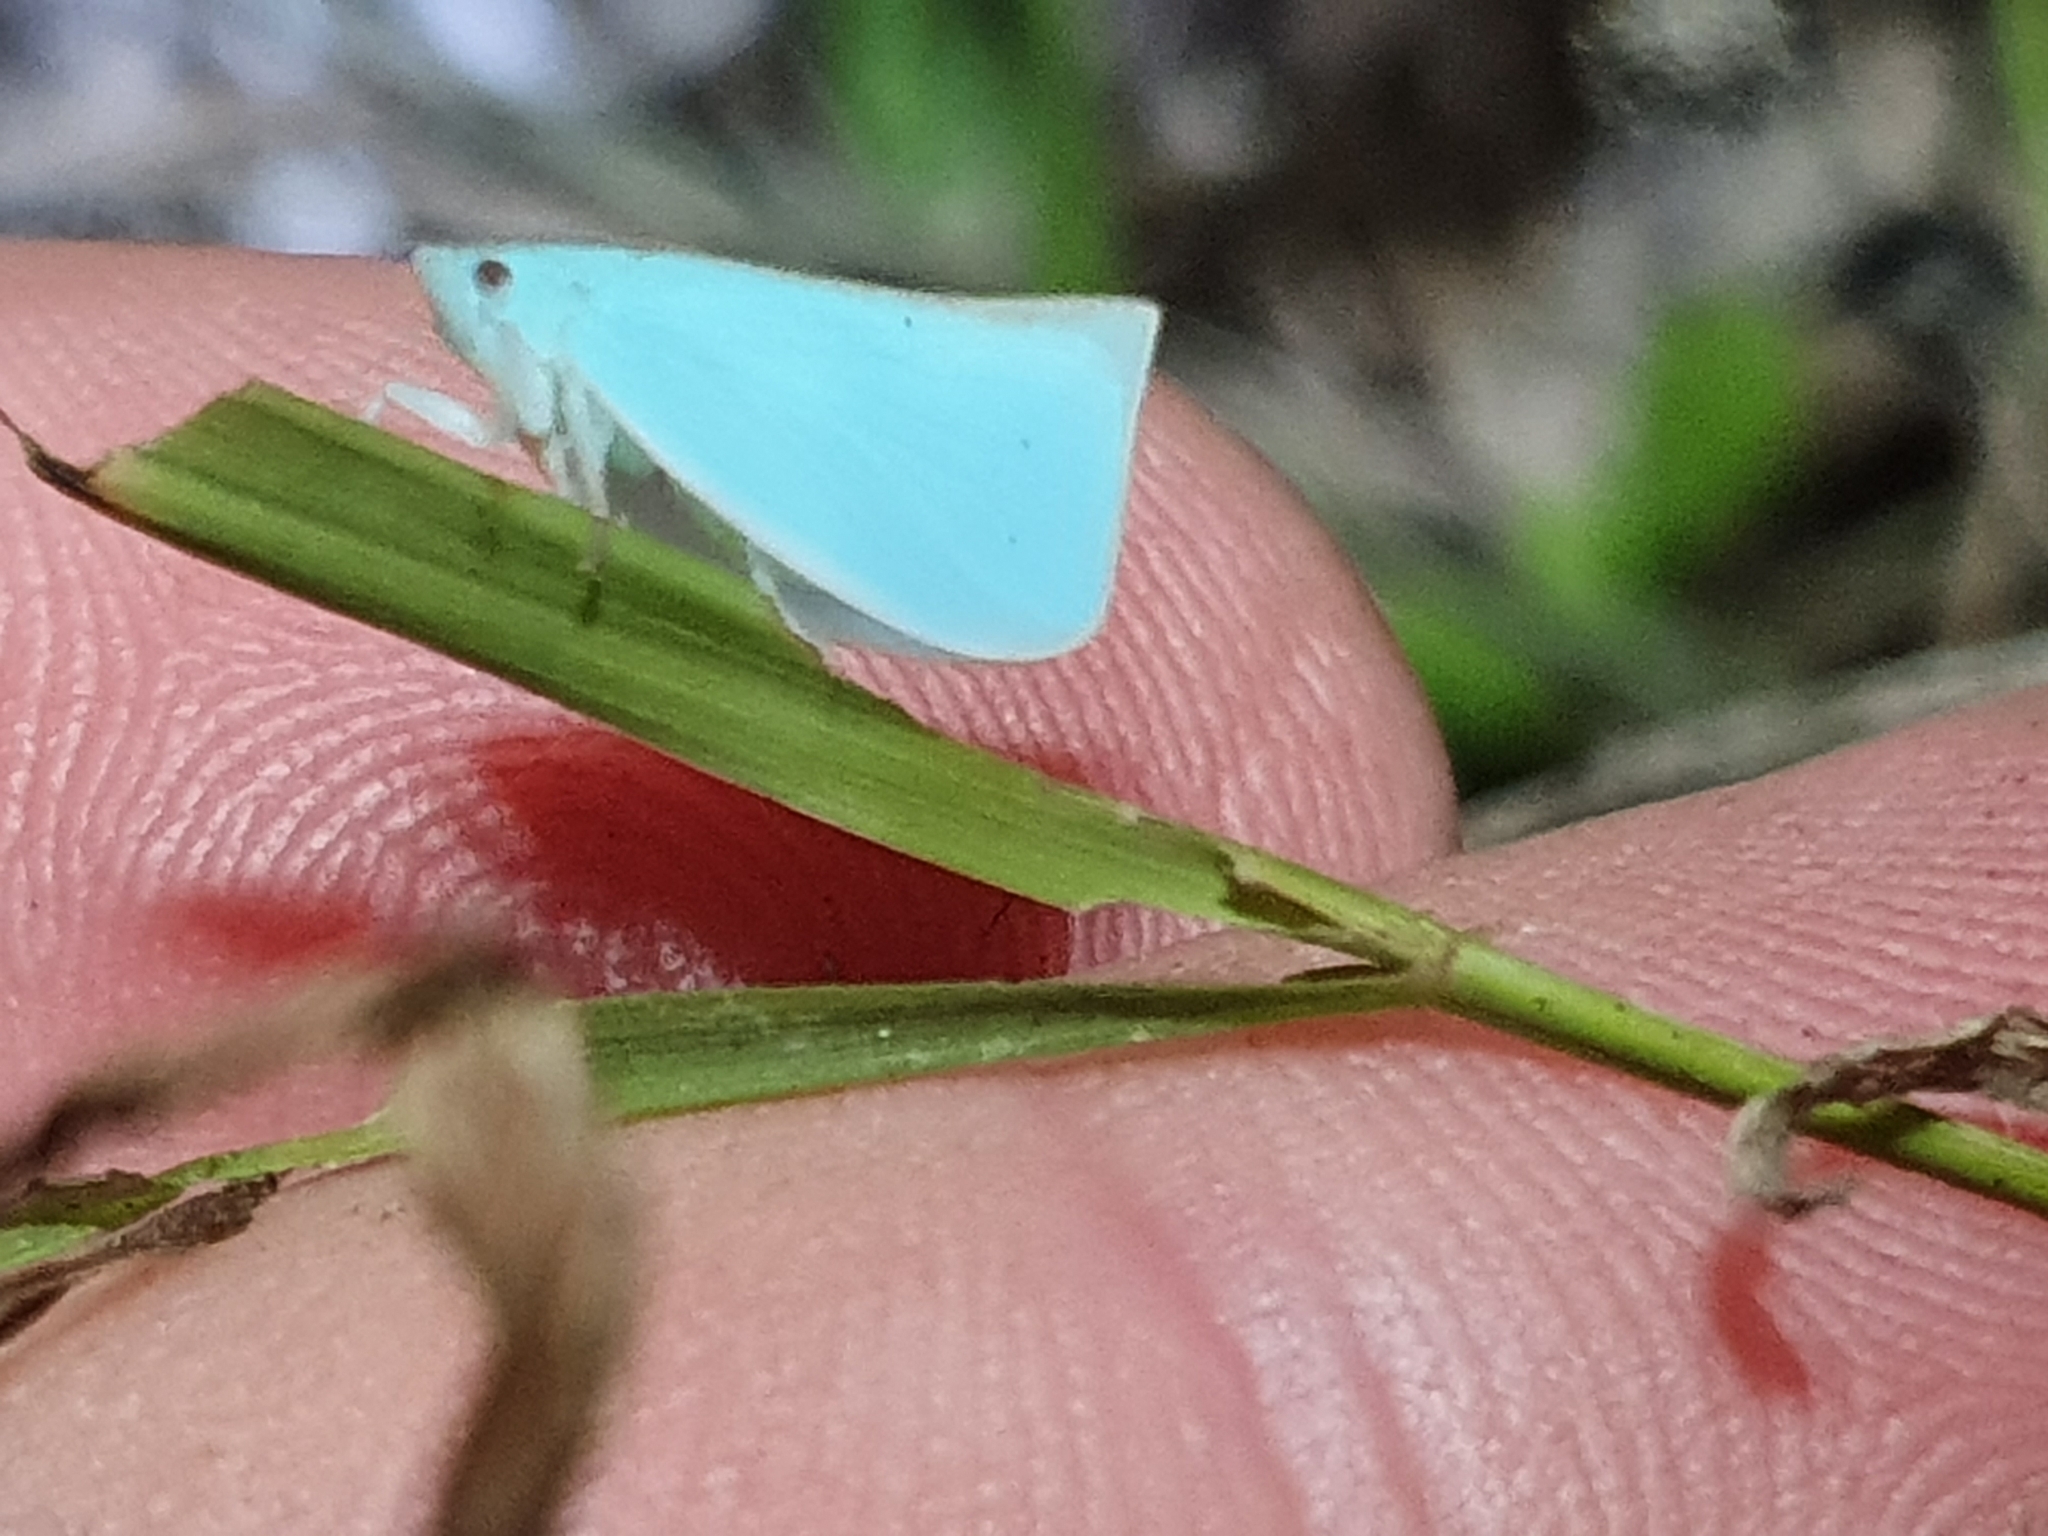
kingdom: Animalia
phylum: Arthropoda
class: Insecta
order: Hemiptera
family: Flatidae
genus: Siphanta
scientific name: Siphanta acuta
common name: Torpedo bug
